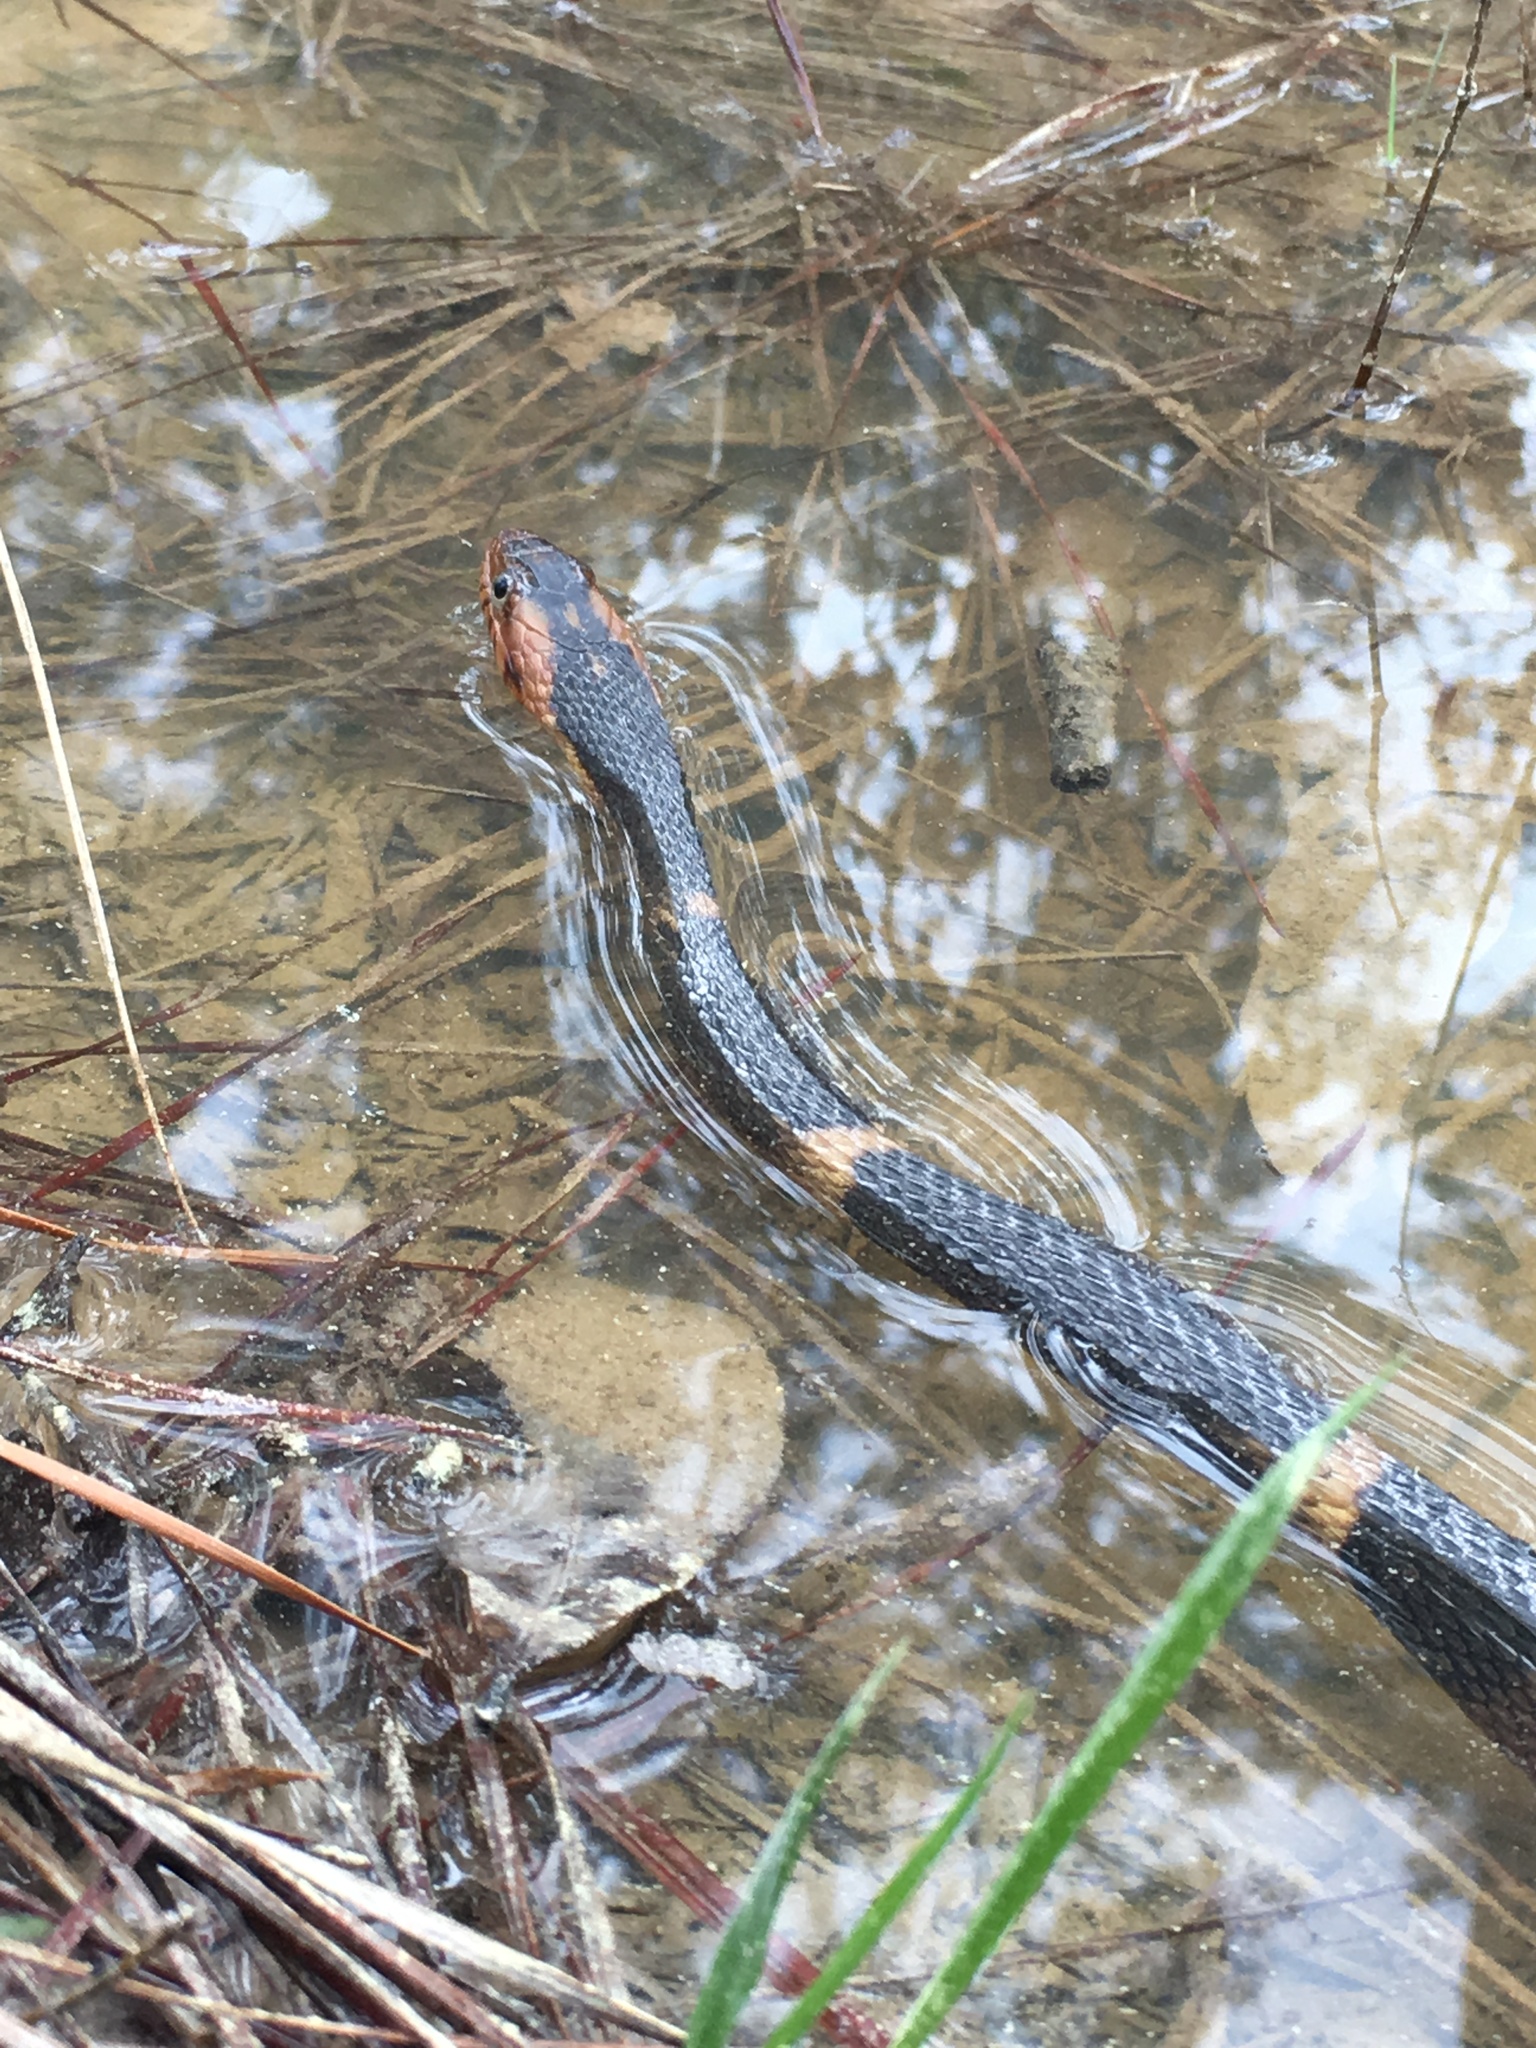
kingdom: Animalia
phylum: Chordata
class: Squamata
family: Colubridae
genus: Nerodia
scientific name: Nerodia fasciata
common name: Southern water snake
